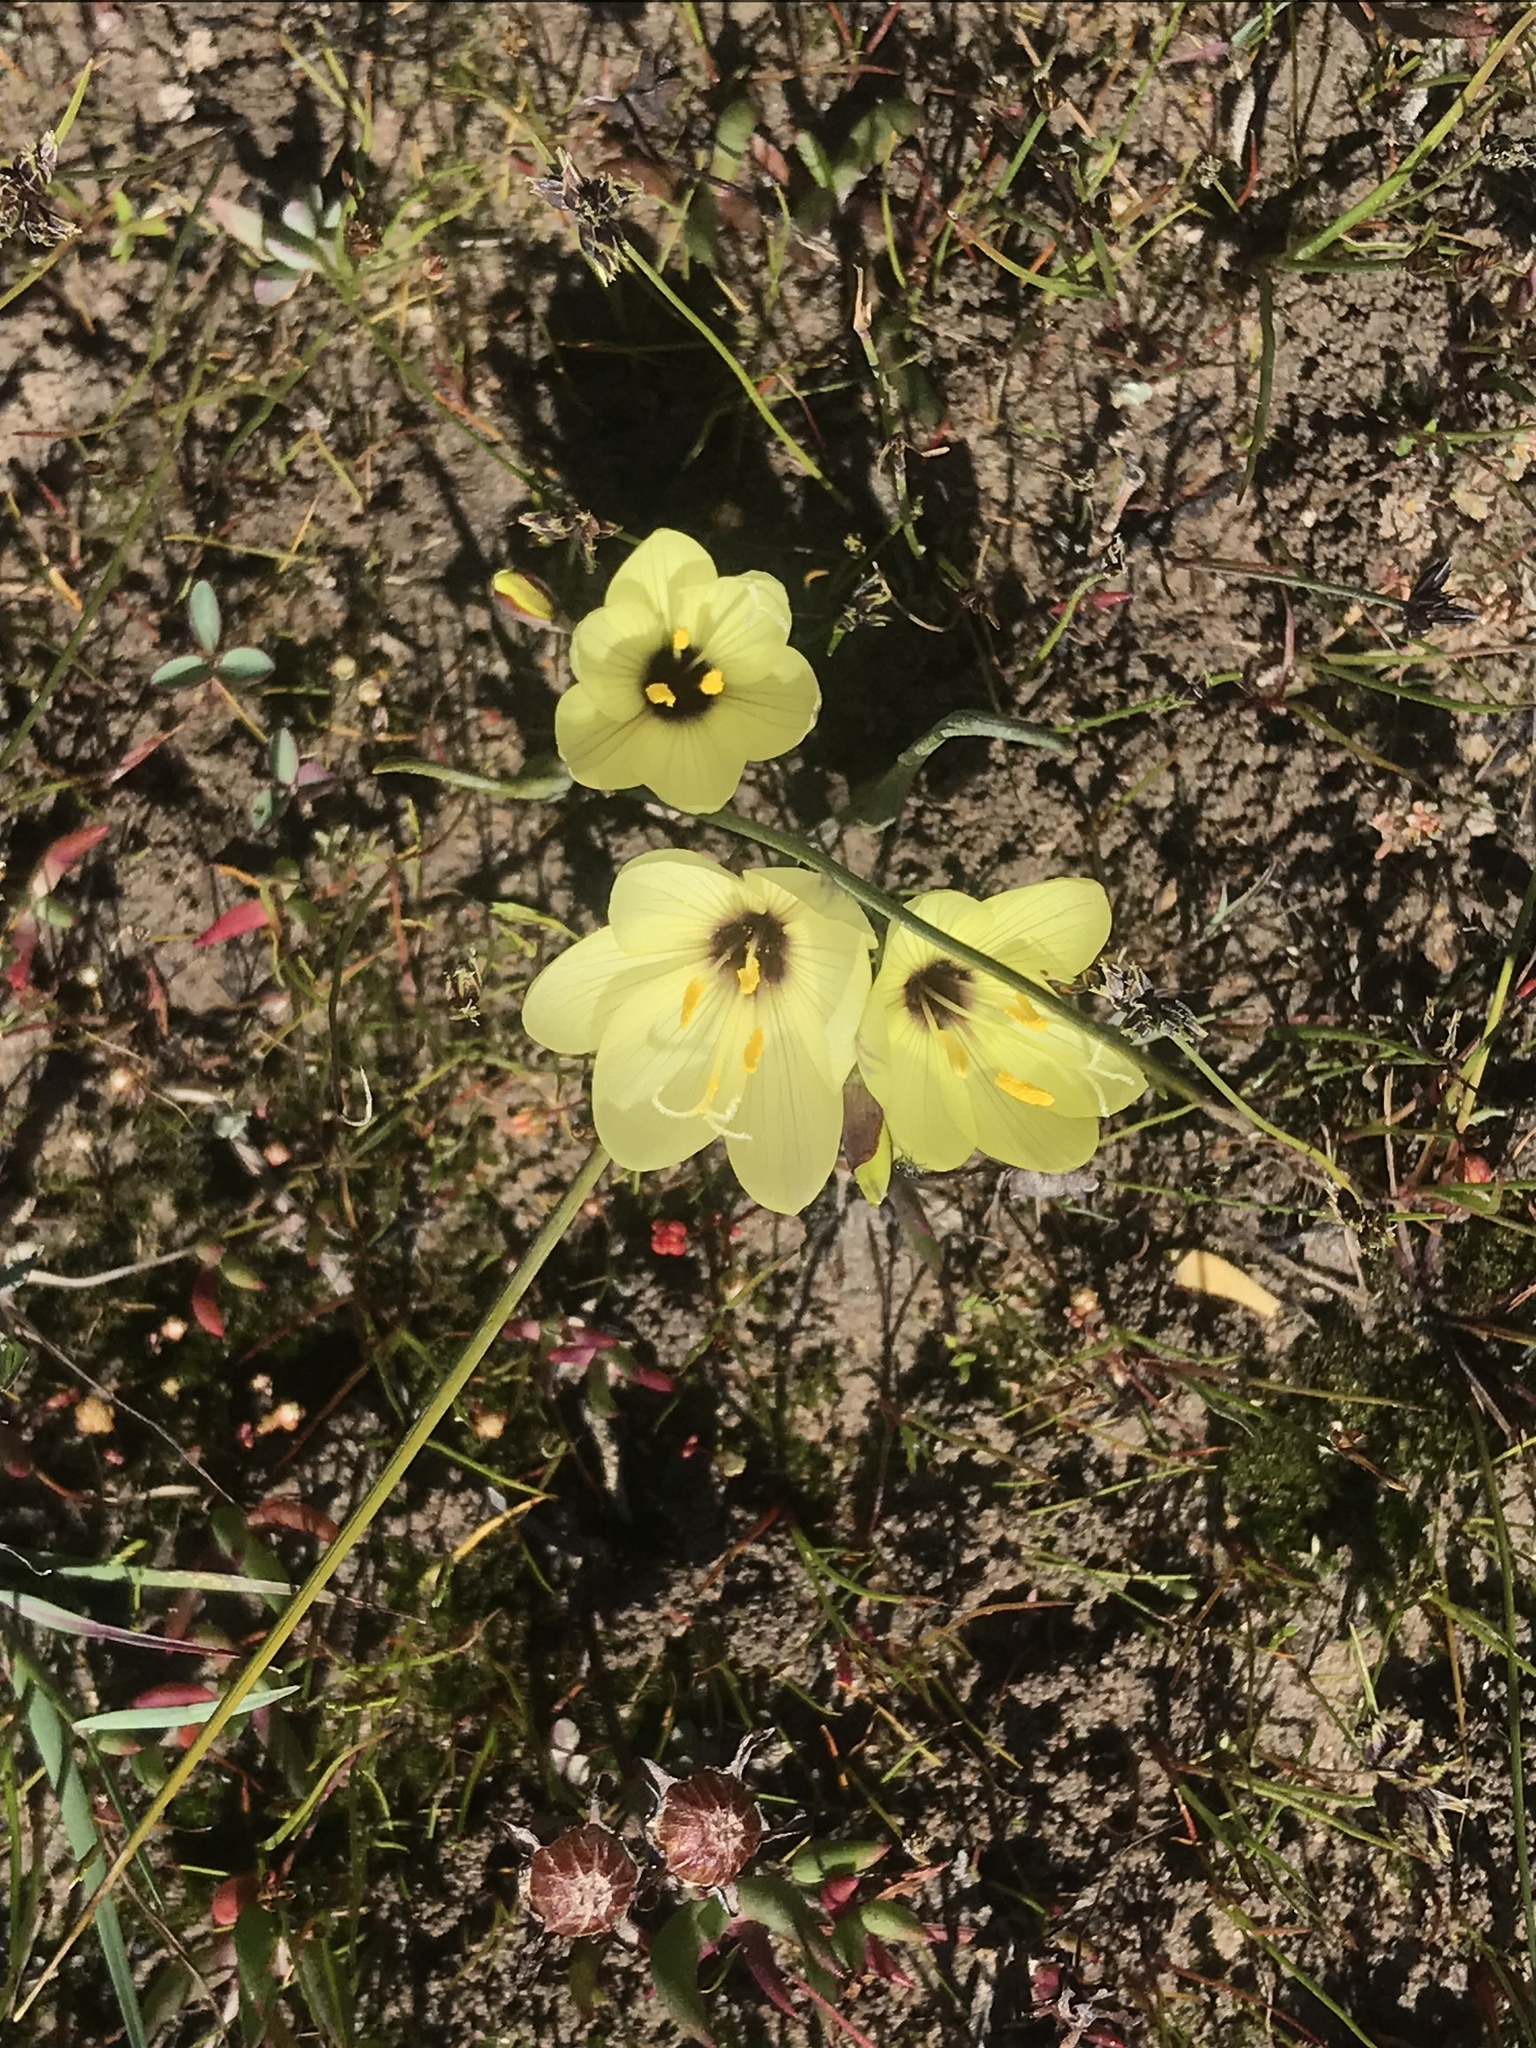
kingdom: Plantae
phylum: Tracheophyta
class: Liliopsida
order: Asparagales
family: Iridaceae
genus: Geissorhiza
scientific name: Geissorhiza purpureolutea
